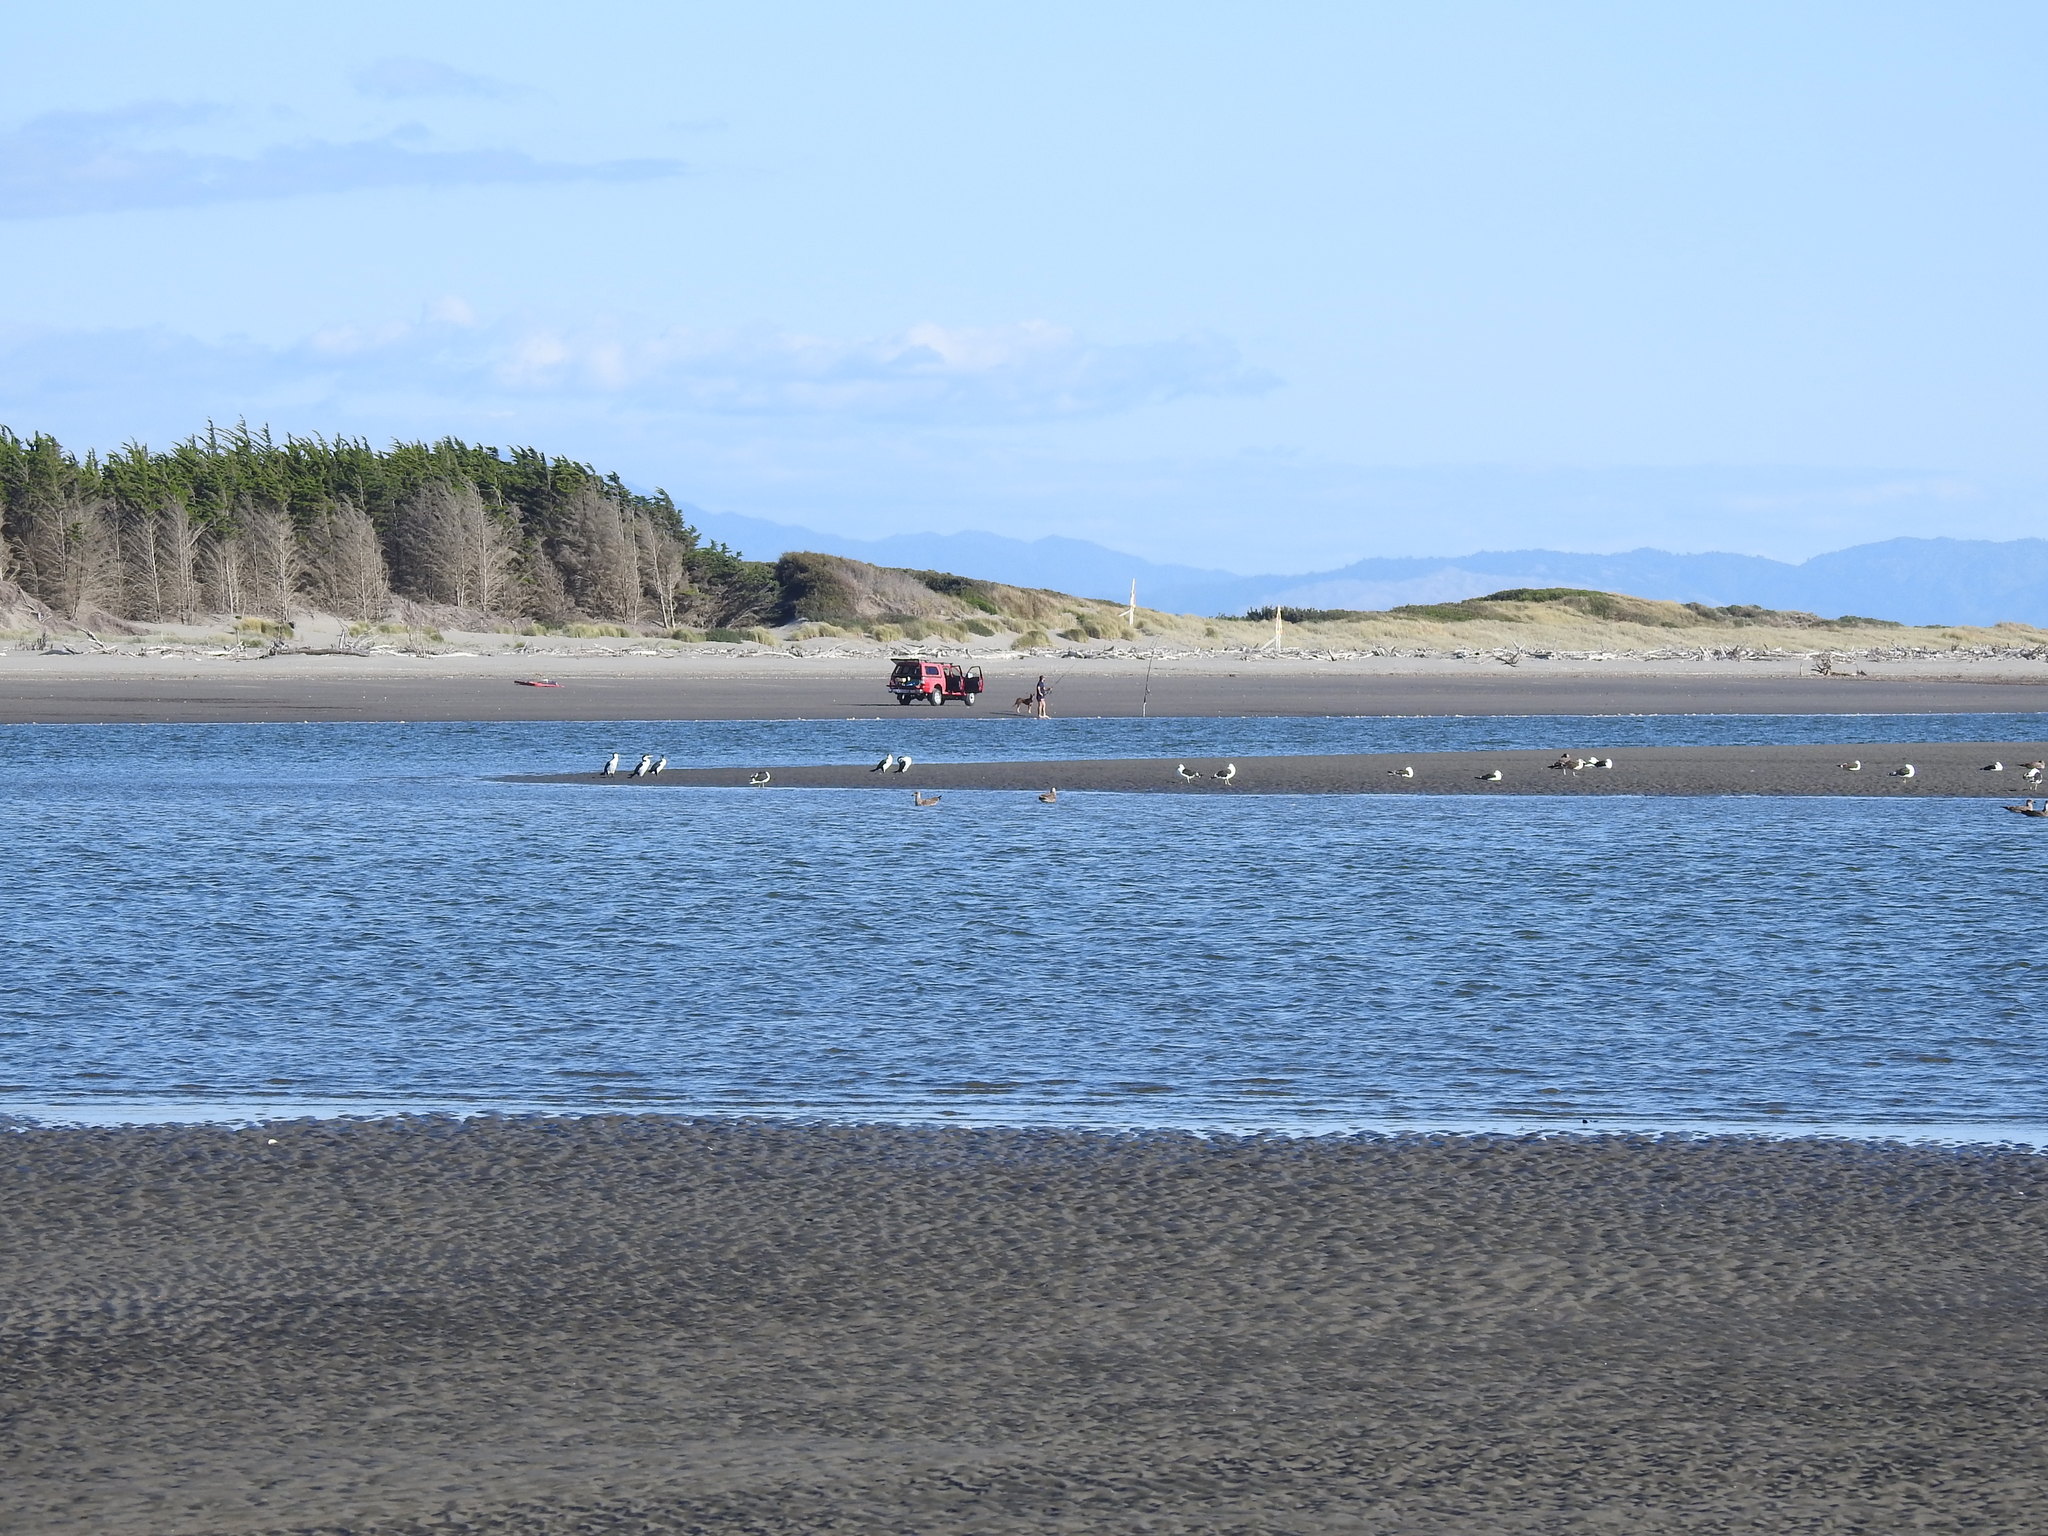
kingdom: Animalia
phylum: Chordata
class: Aves
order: Suliformes
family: Phalacrocoracidae
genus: Phalacrocorax
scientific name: Phalacrocorax varius
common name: Pied cormorant
